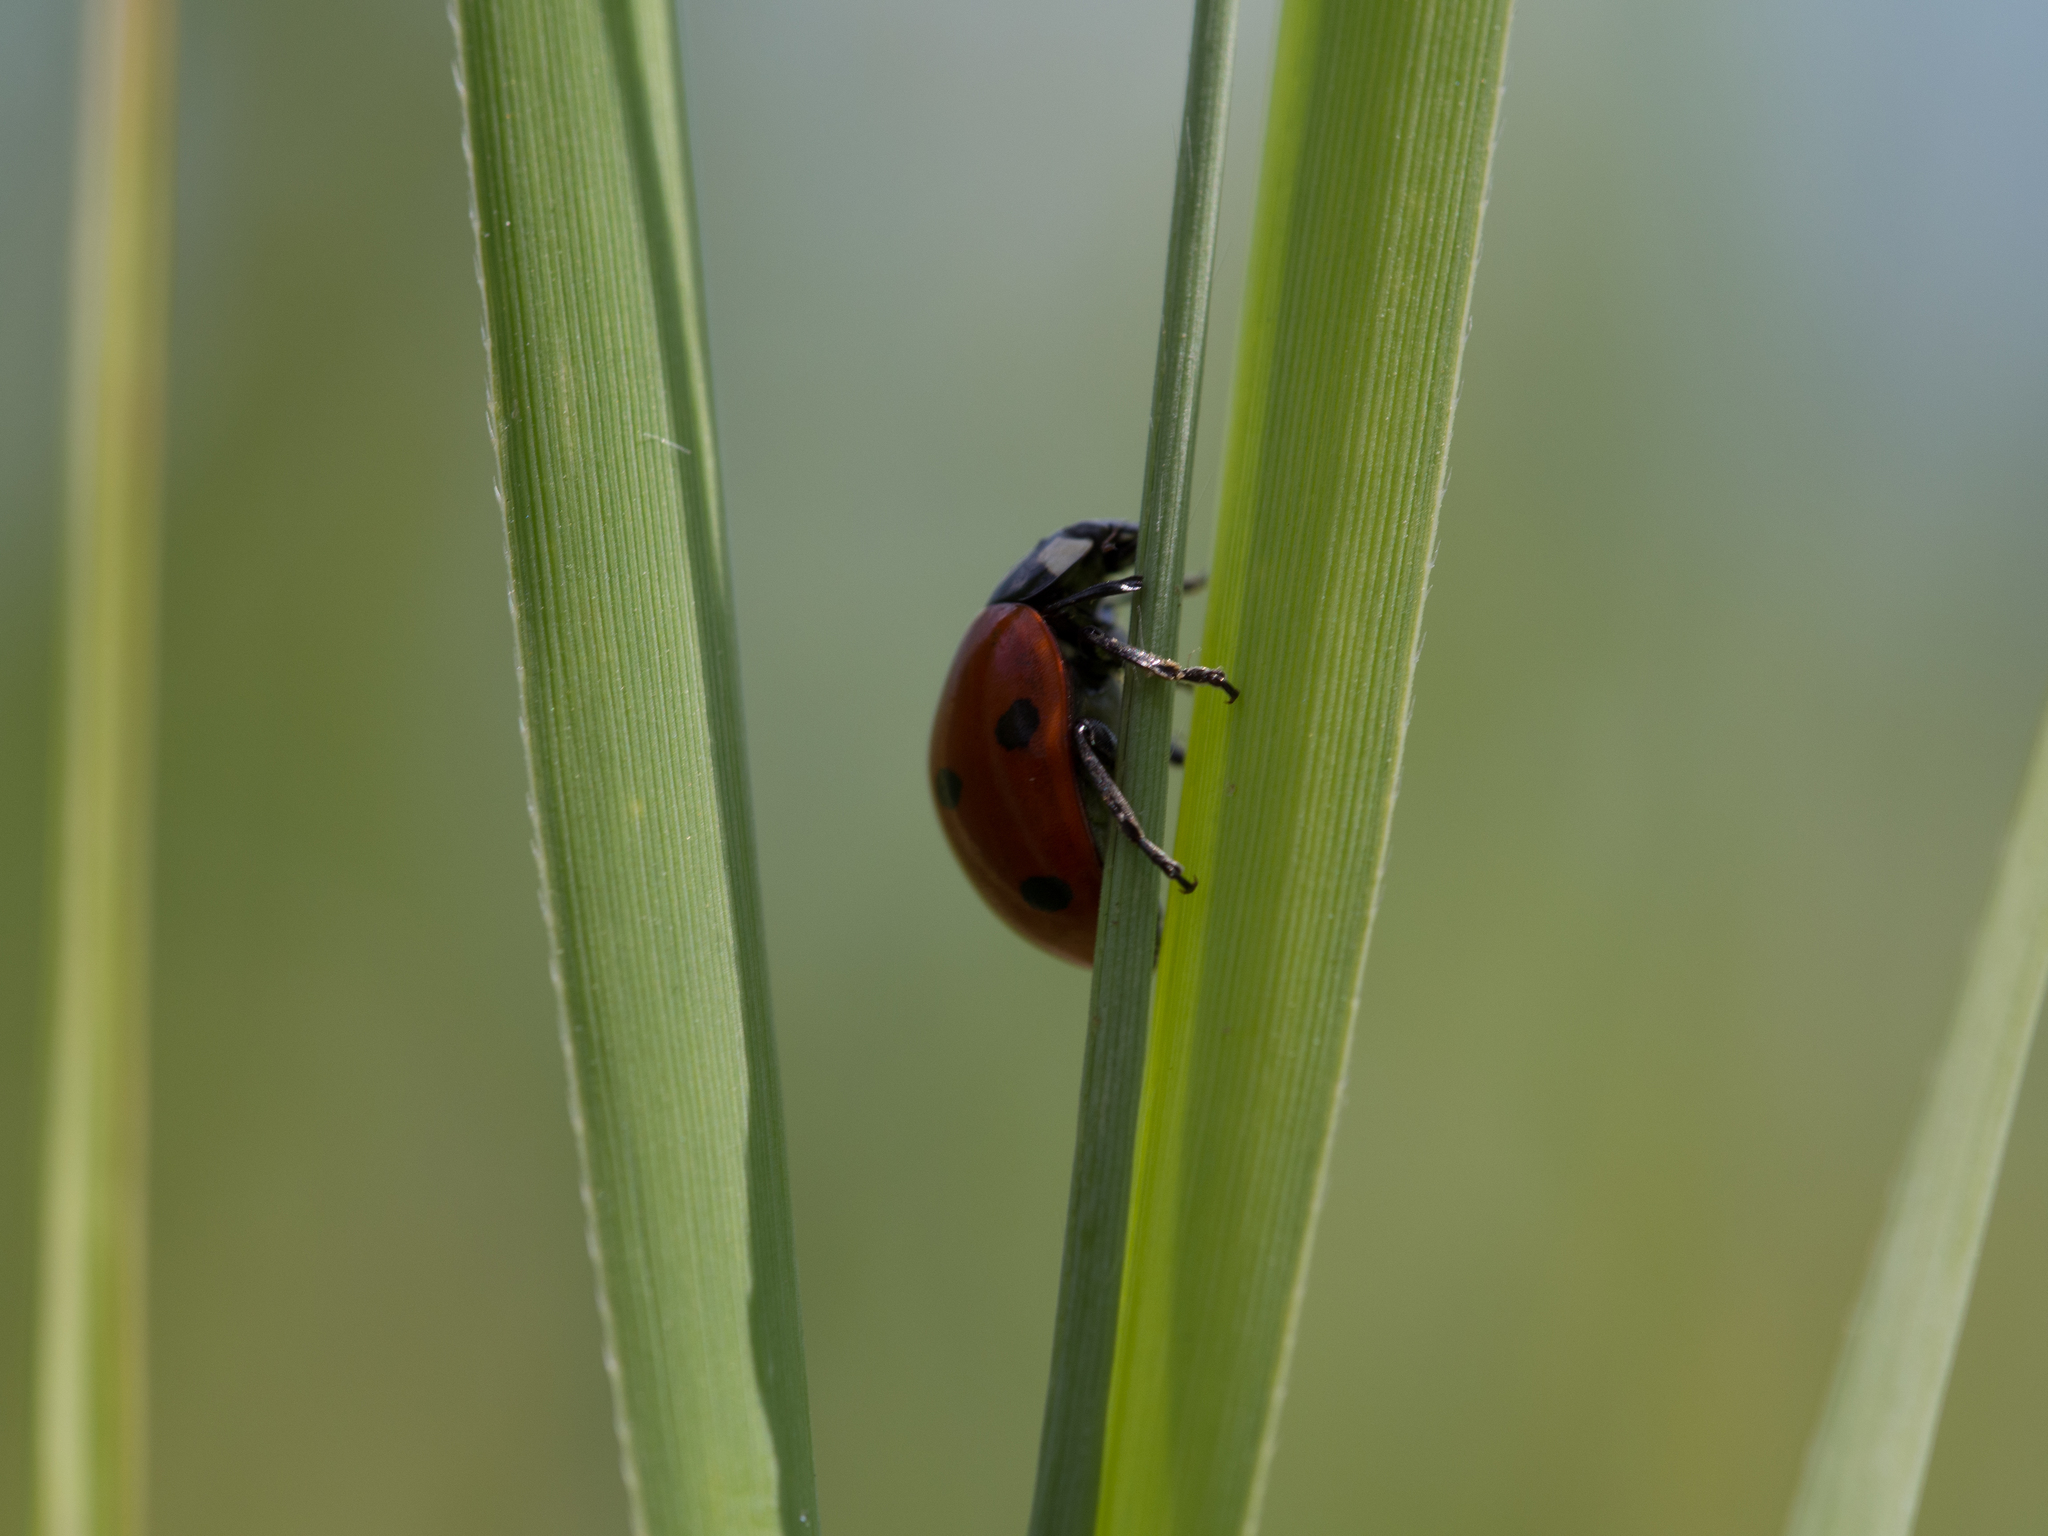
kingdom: Animalia
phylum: Arthropoda
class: Insecta
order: Coleoptera
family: Coccinellidae
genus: Coccinella
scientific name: Coccinella septempunctata
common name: Sevenspotted lady beetle
